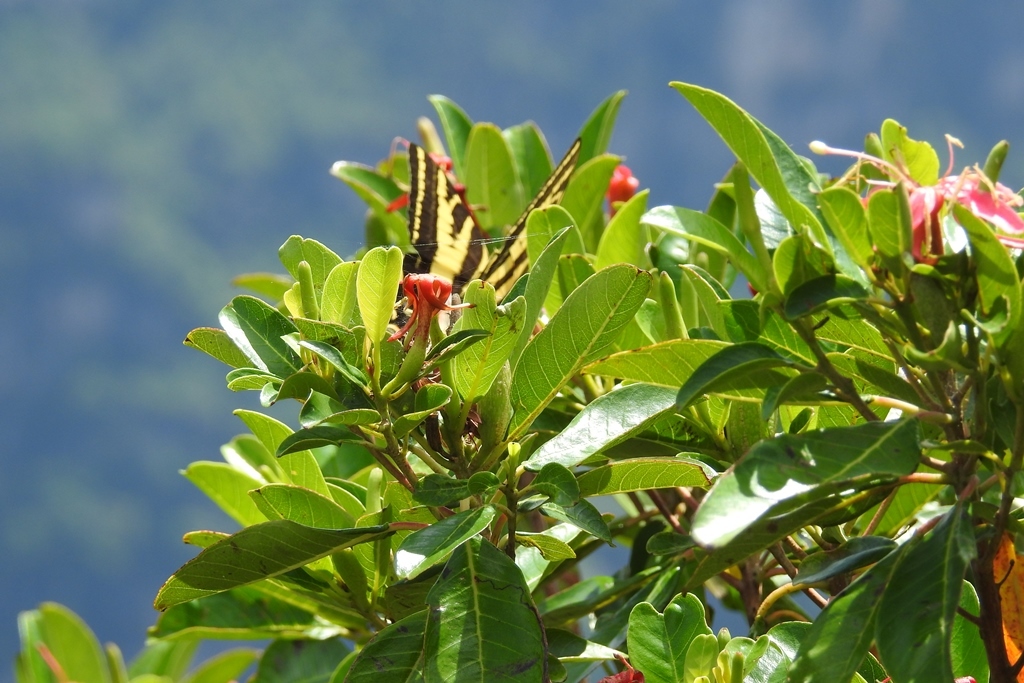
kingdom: Animalia
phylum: Arthropoda
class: Insecta
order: Lepidoptera
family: Papilionidae
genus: Papilio
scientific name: Papilio pilumnus
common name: Three-tailed tiger swallowtail
